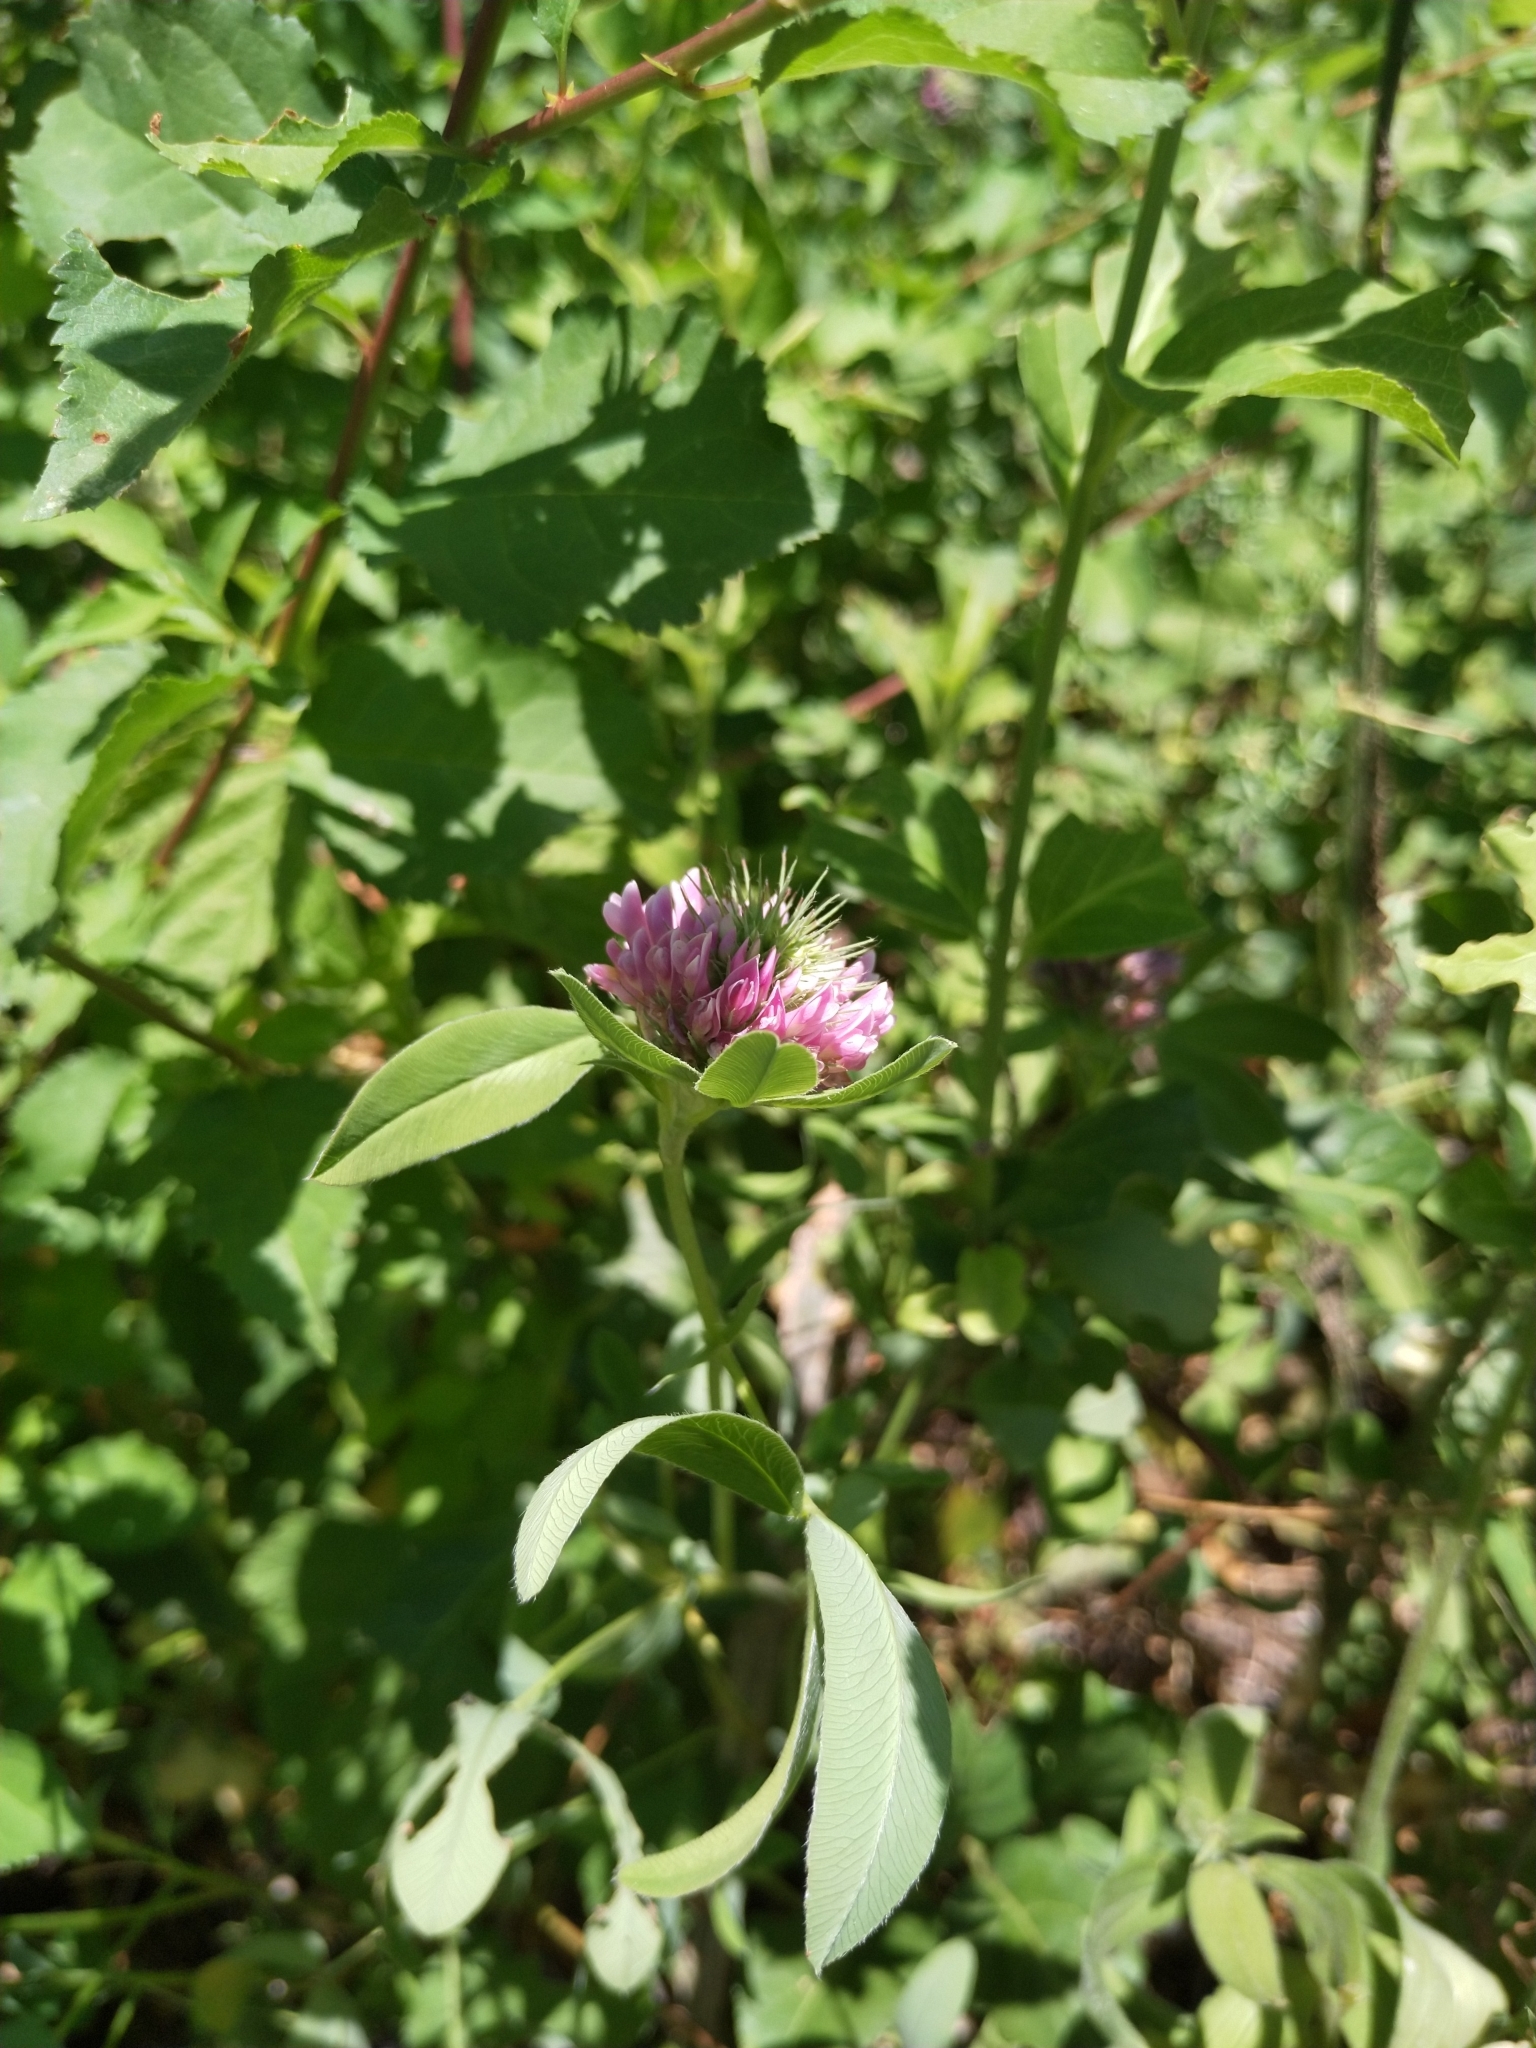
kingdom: Plantae
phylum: Tracheophyta
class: Magnoliopsida
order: Fabales
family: Fabaceae
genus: Trifolium
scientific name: Trifolium medium
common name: Zigzag clover
